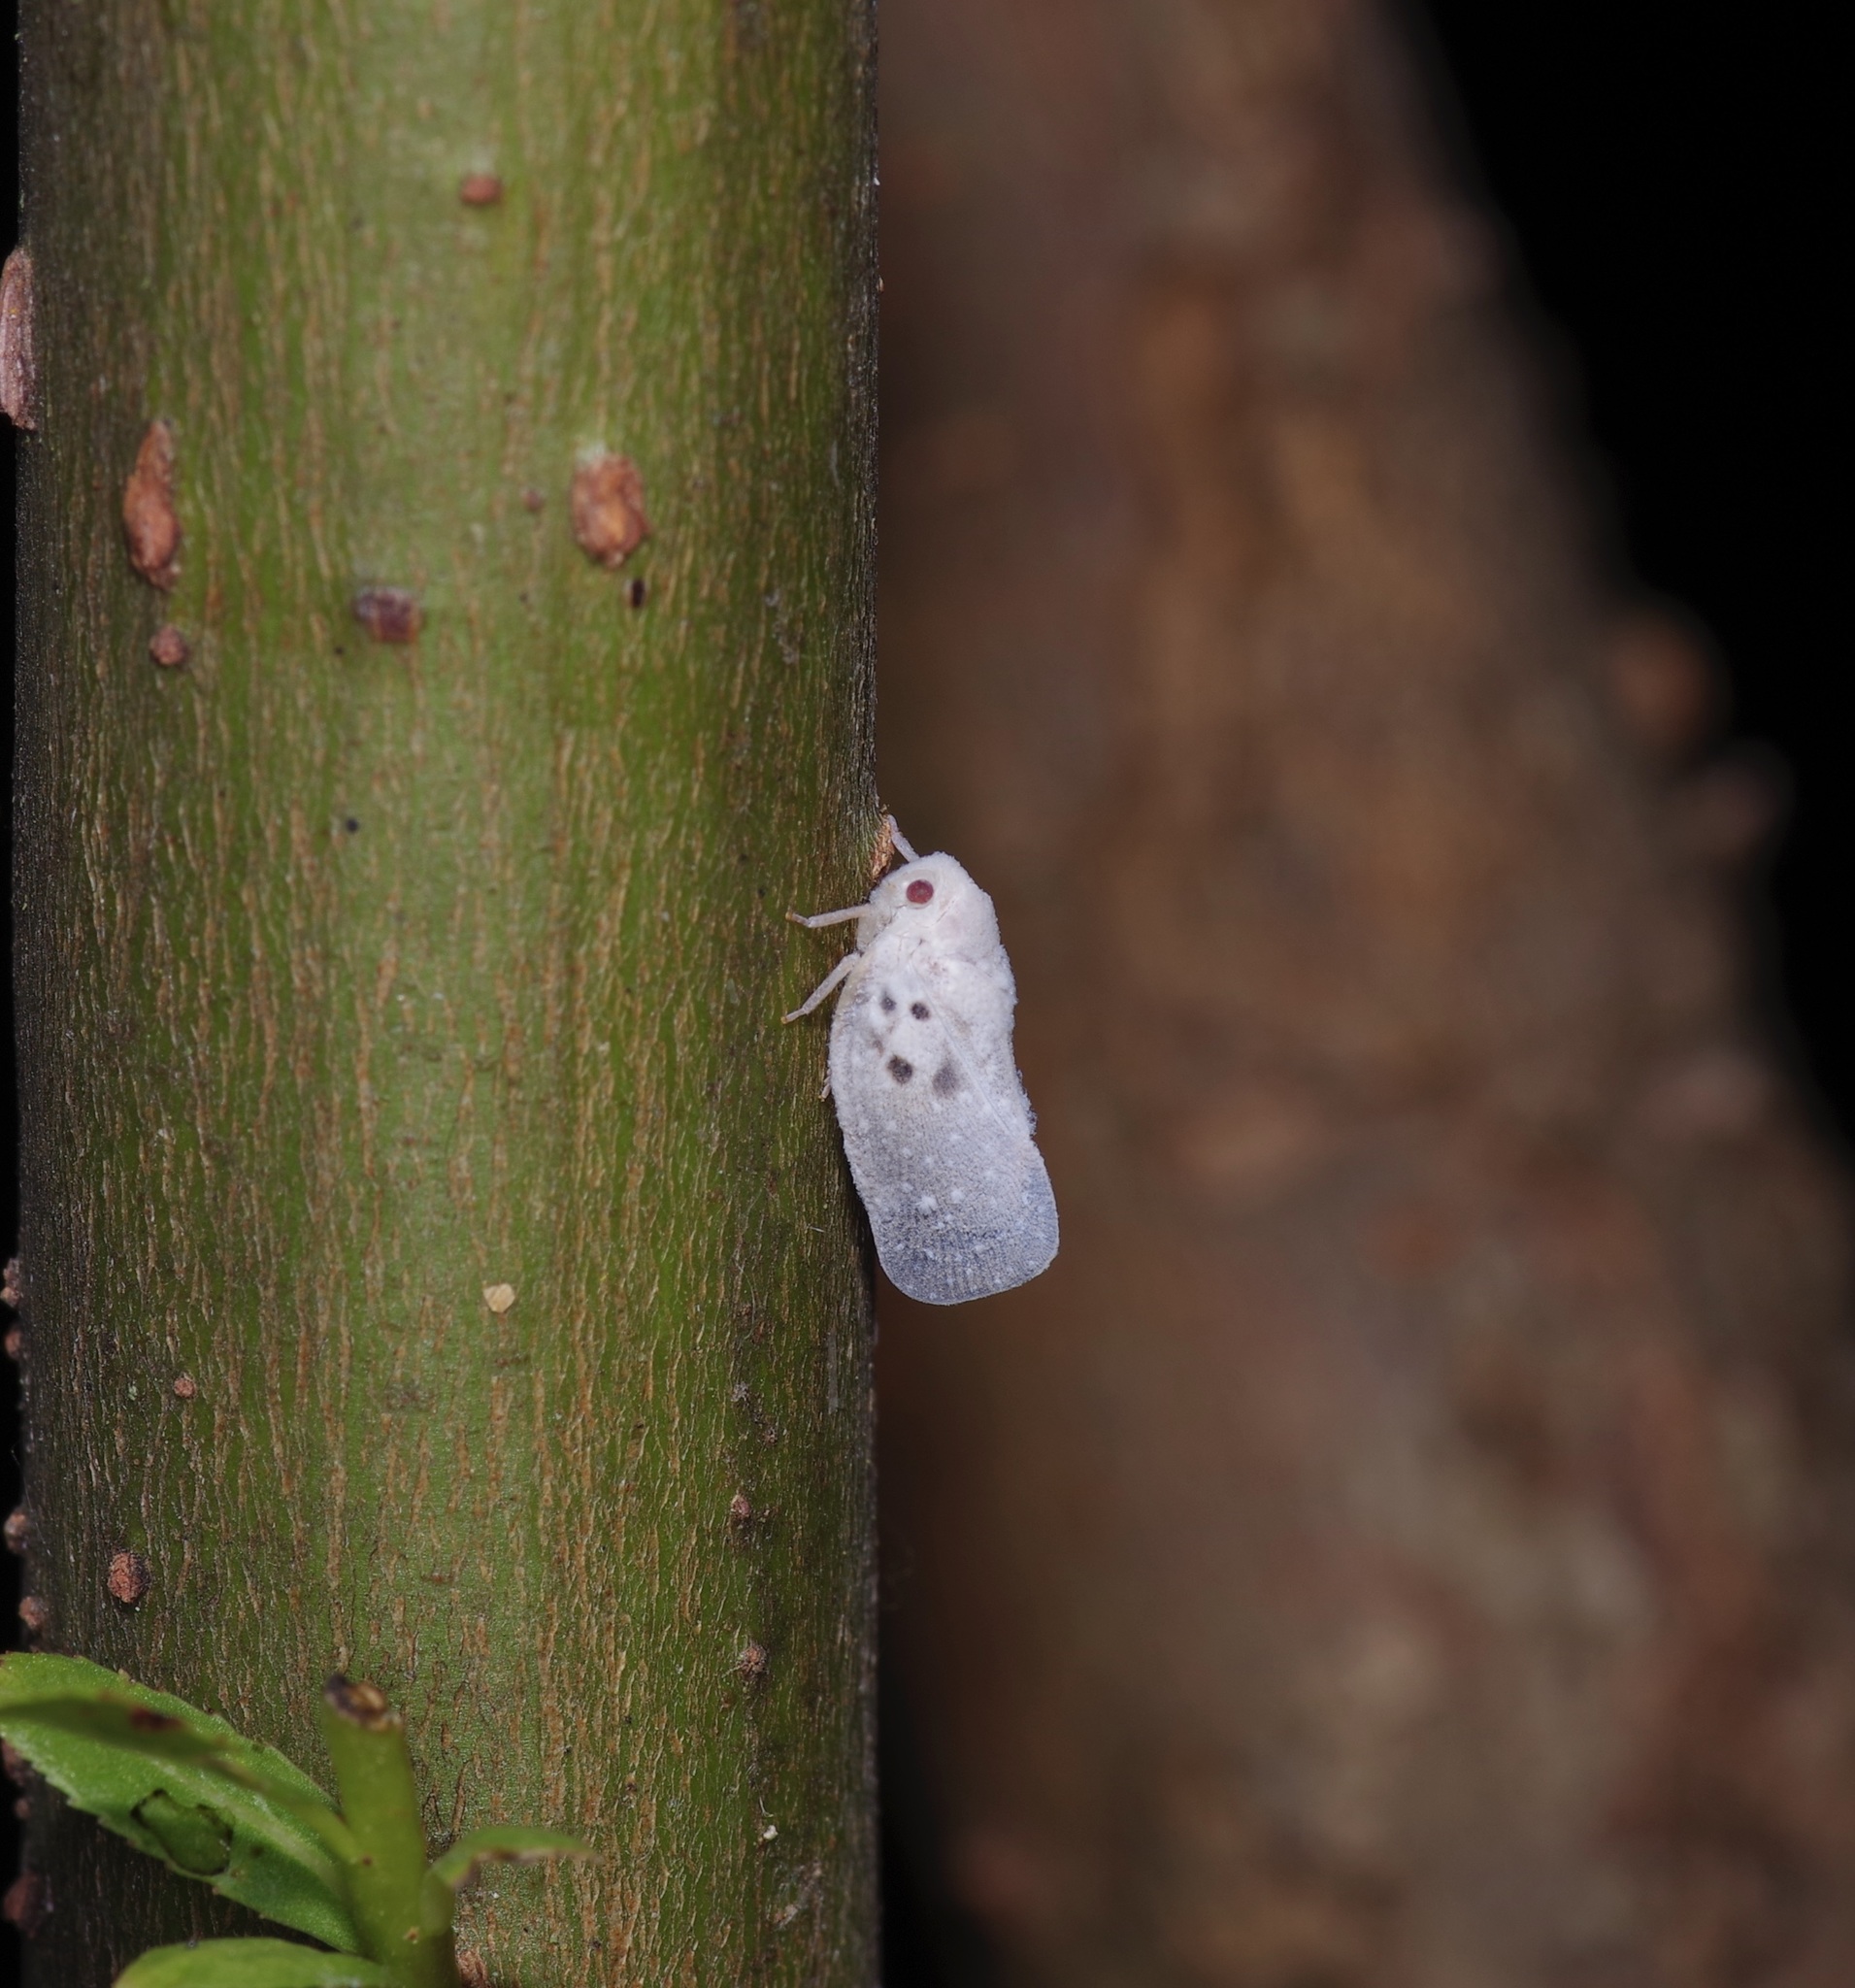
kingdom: Animalia
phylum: Arthropoda
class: Insecta
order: Hemiptera
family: Flatidae
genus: Metcalfa
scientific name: Metcalfa pruinosa
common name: Citrus flatid planthopper
